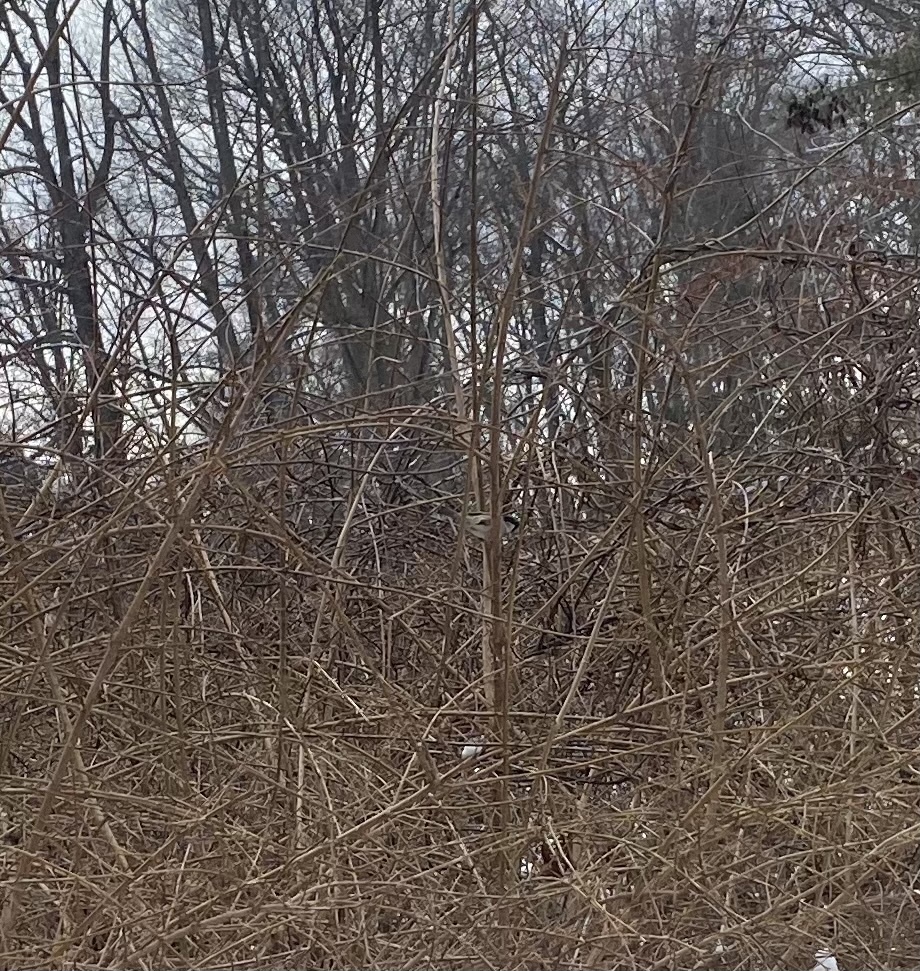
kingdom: Animalia
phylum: Chordata
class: Aves
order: Passeriformes
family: Passeridae
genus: Passer
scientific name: Passer domesticus
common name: House sparrow
